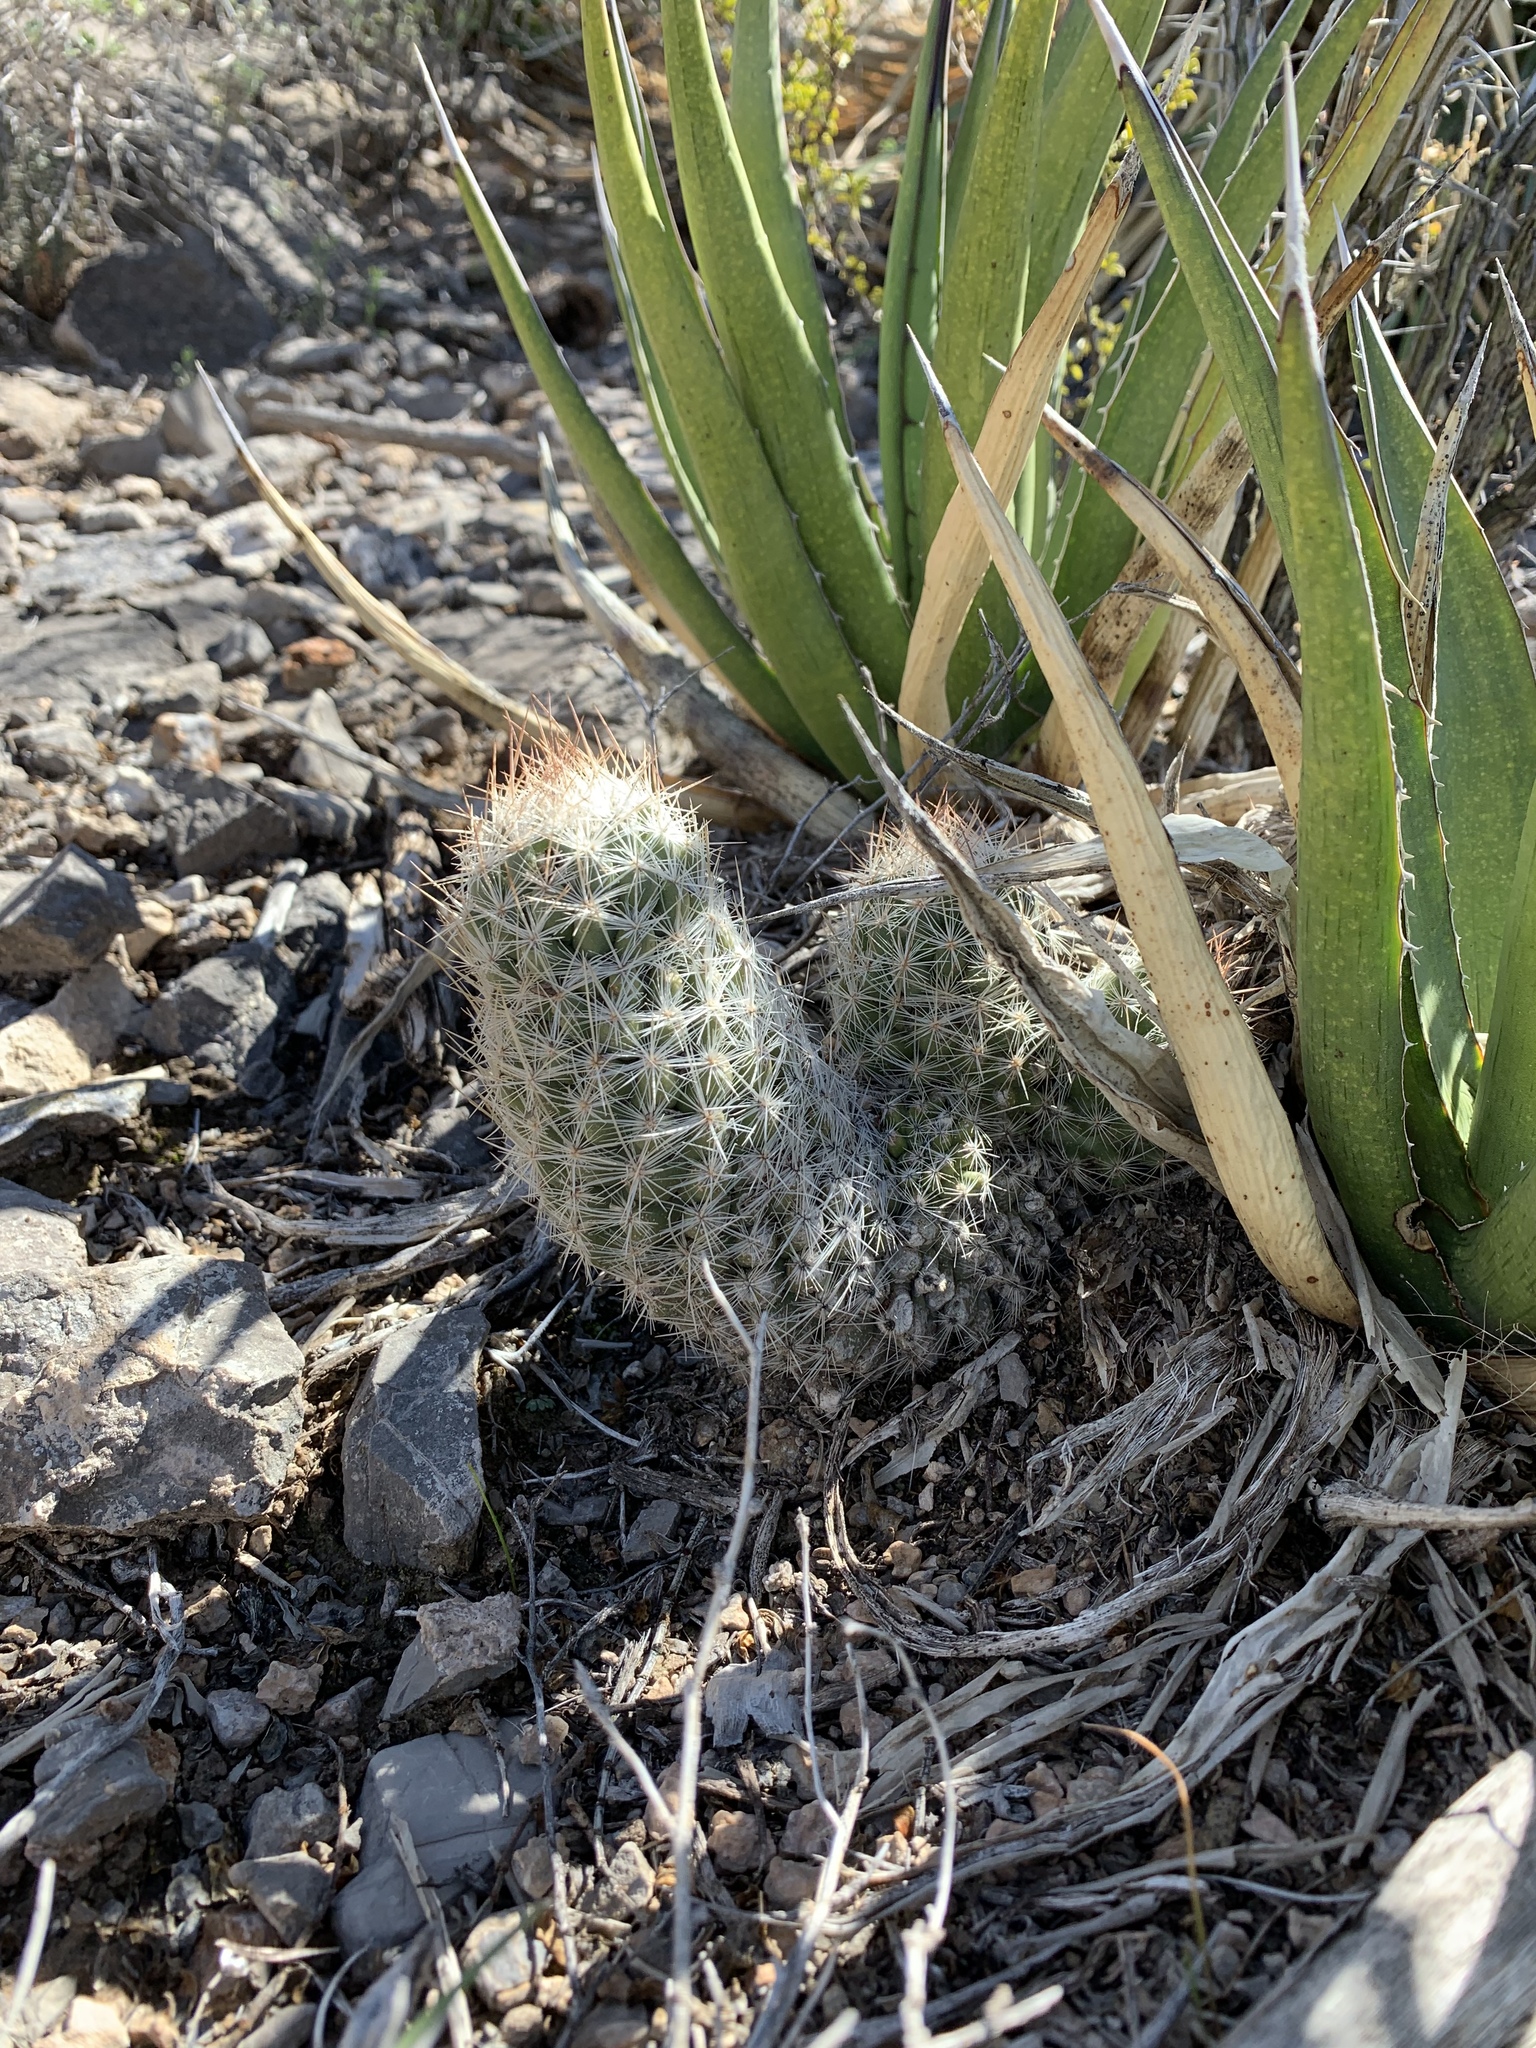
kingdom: Plantae
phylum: Tracheophyta
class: Magnoliopsida
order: Caryophyllales
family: Cactaceae
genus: Pelecyphora
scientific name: Pelecyphora tuberculosa
